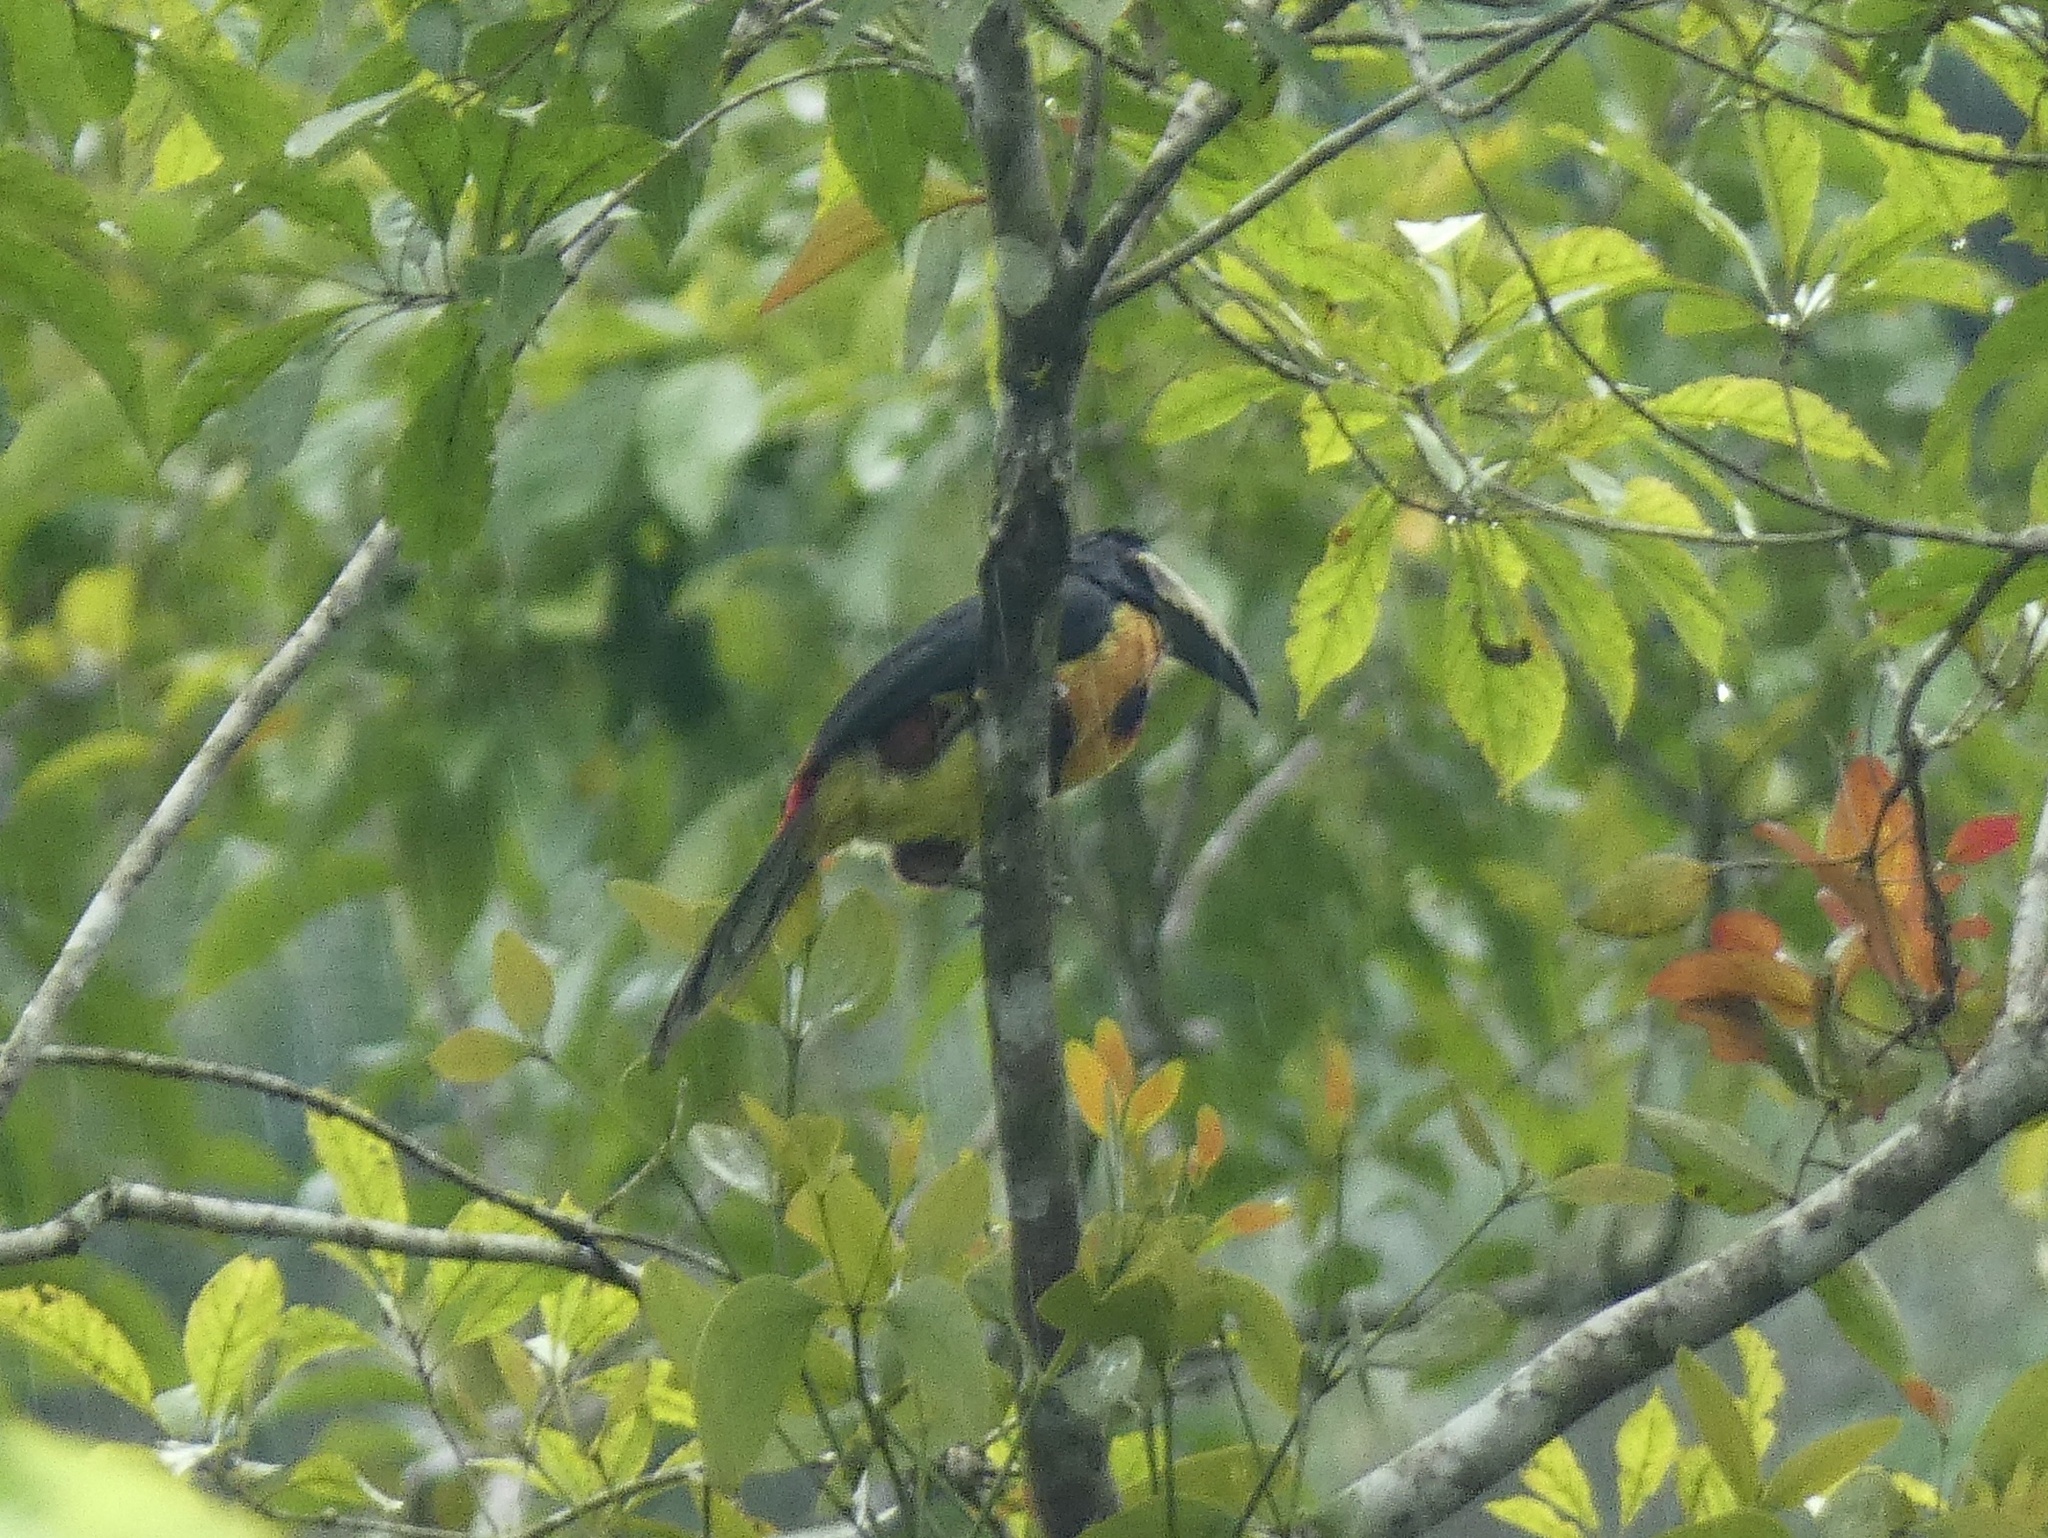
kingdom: Animalia
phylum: Chordata
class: Aves
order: Piciformes
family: Ramphastidae
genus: Pteroglossus
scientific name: Pteroglossus torquatus
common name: Collared aracari
